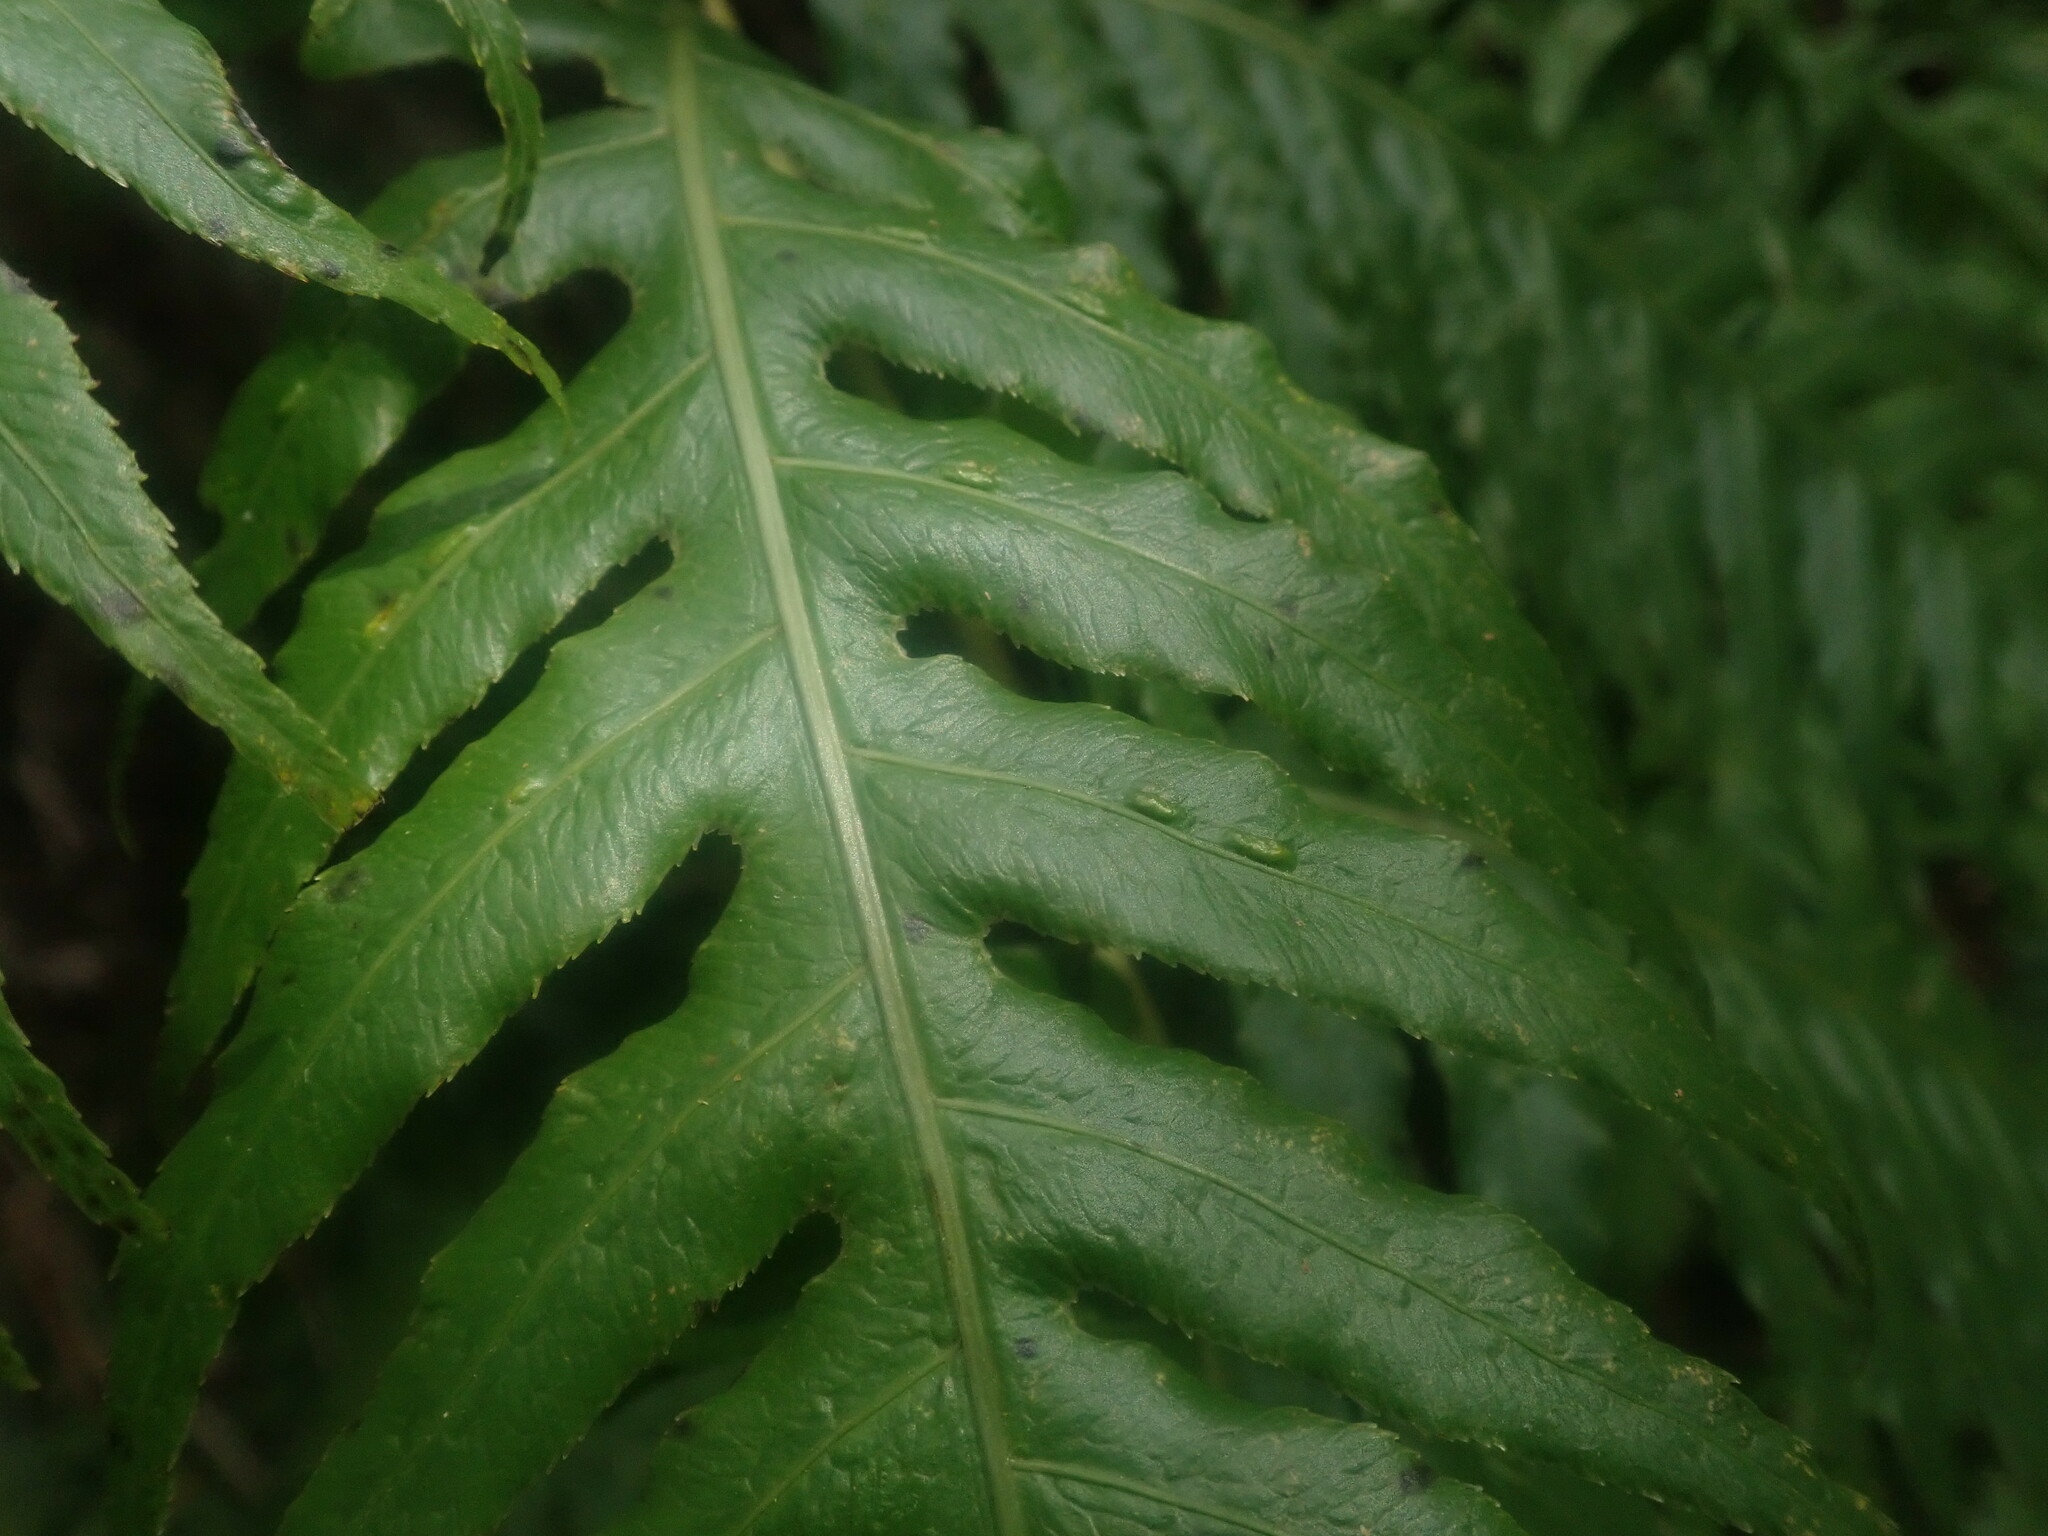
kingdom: Plantae
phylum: Tracheophyta
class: Polypodiopsida
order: Polypodiales
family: Blechnaceae
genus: Woodwardia
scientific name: Woodwardia radicans
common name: Rooting chainfern
